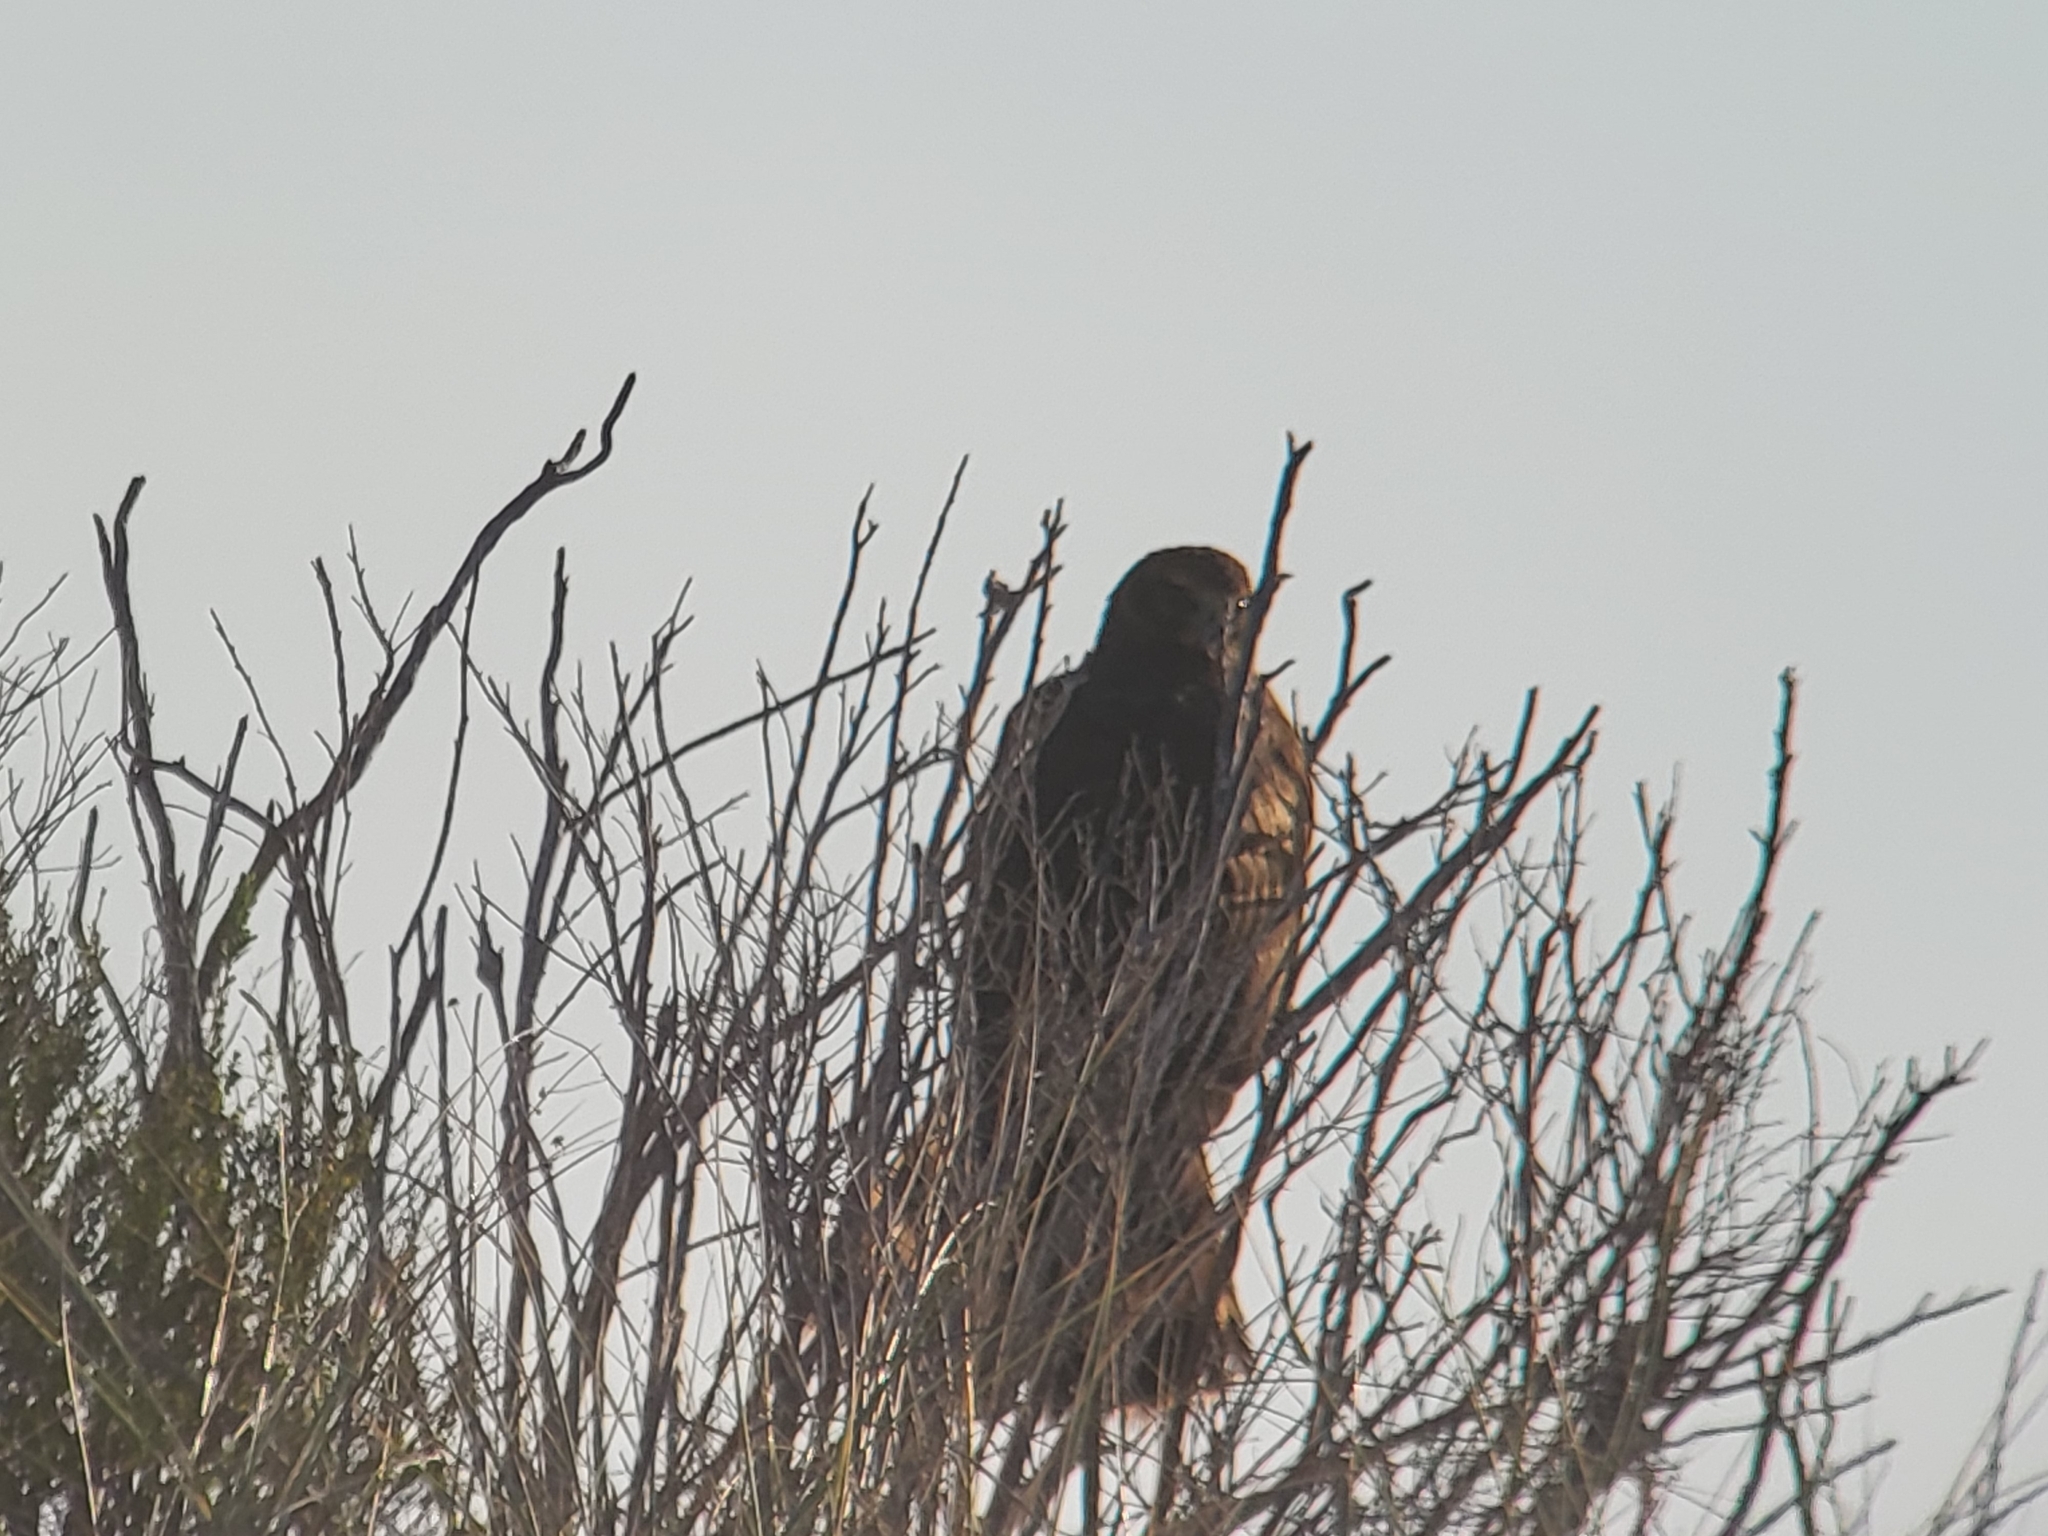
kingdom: Animalia
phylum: Chordata
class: Aves
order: Accipitriformes
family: Accipitridae
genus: Circus
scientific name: Circus cyaneus
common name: Hen harrier
